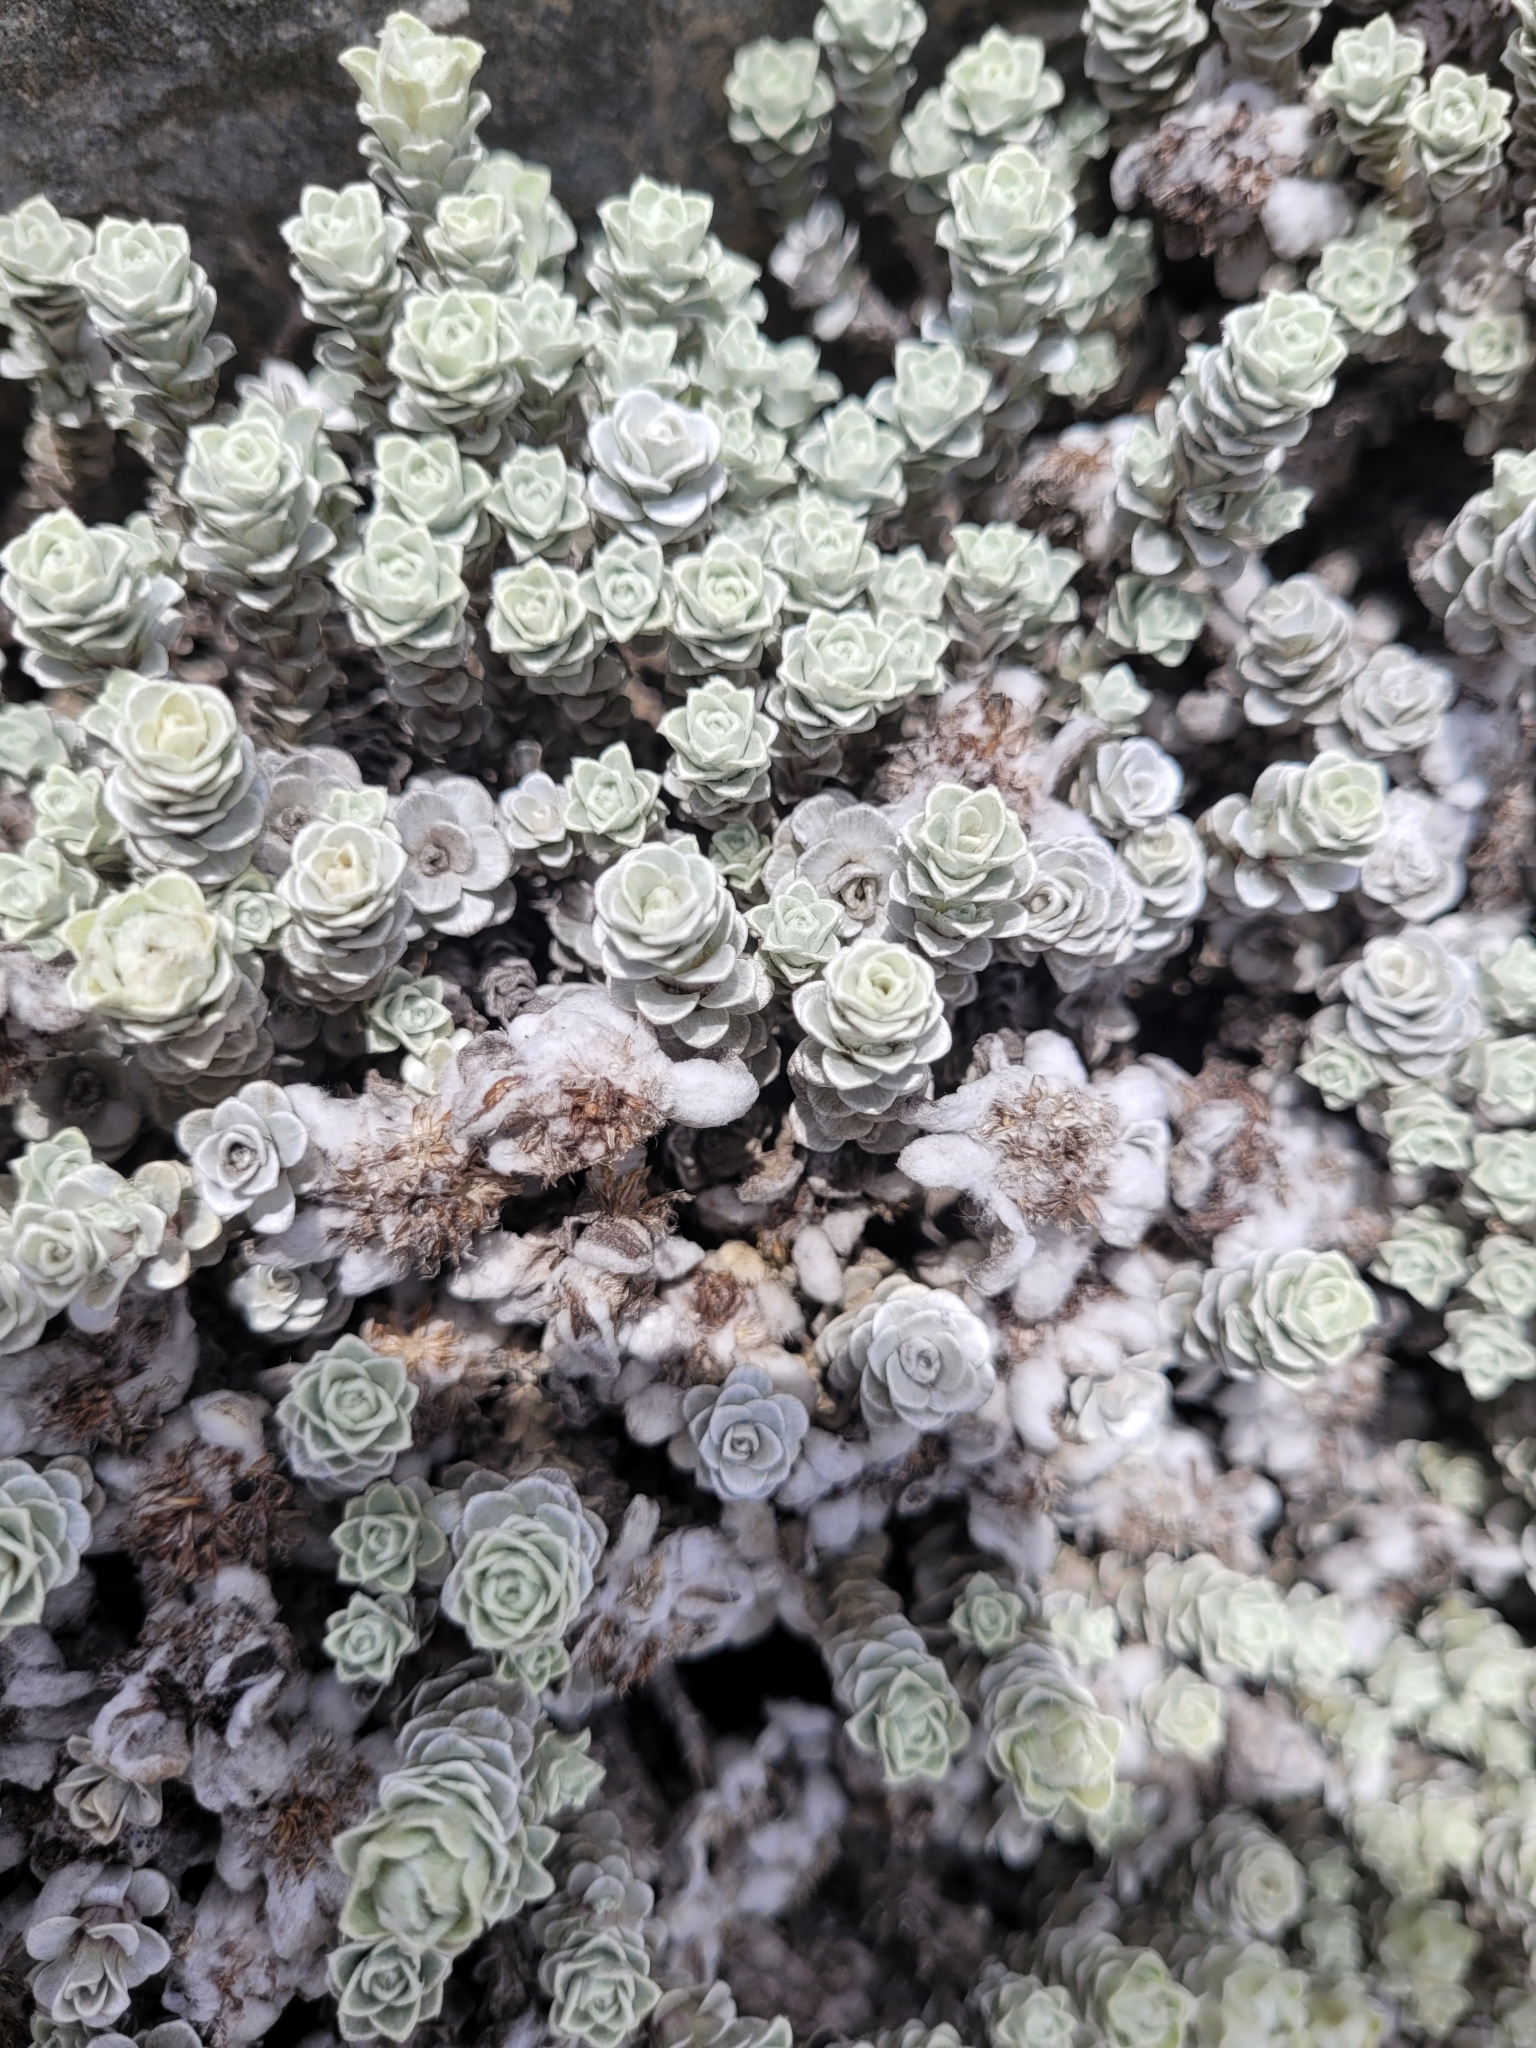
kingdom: Plantae
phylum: Tracheophyta
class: Magnoliopsida
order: Asterales
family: Asteraceae
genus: Leucogenes
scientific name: Leucogenes grandiceps
